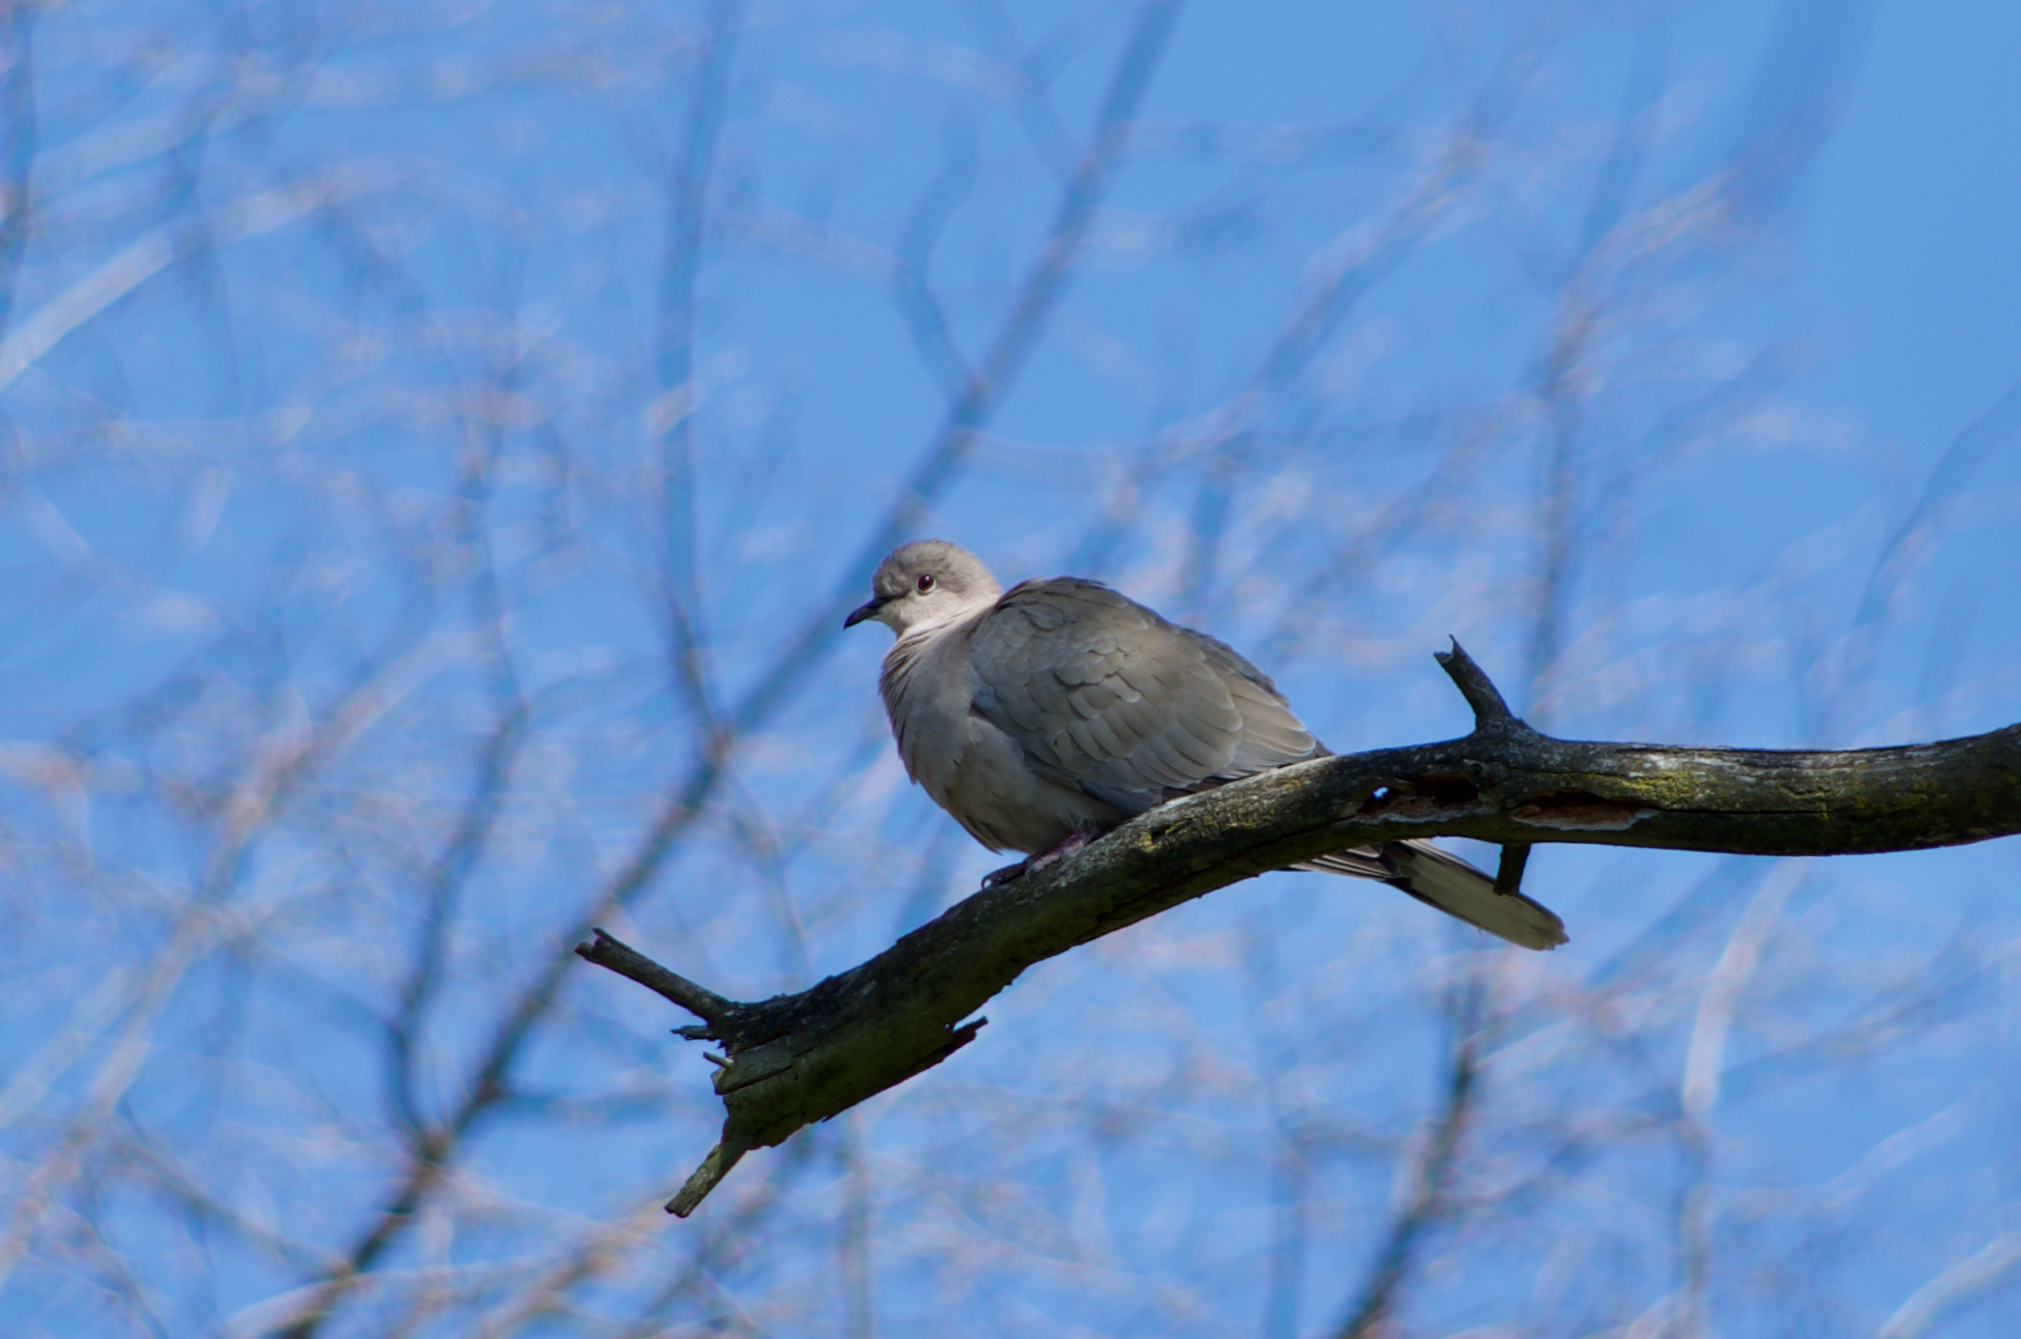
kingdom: Animalia
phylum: Chordata
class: Aves
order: Columbiformes
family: Columbidae
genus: Streptopelia
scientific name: Streptopelia decaocto
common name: Eurasian collared dove
